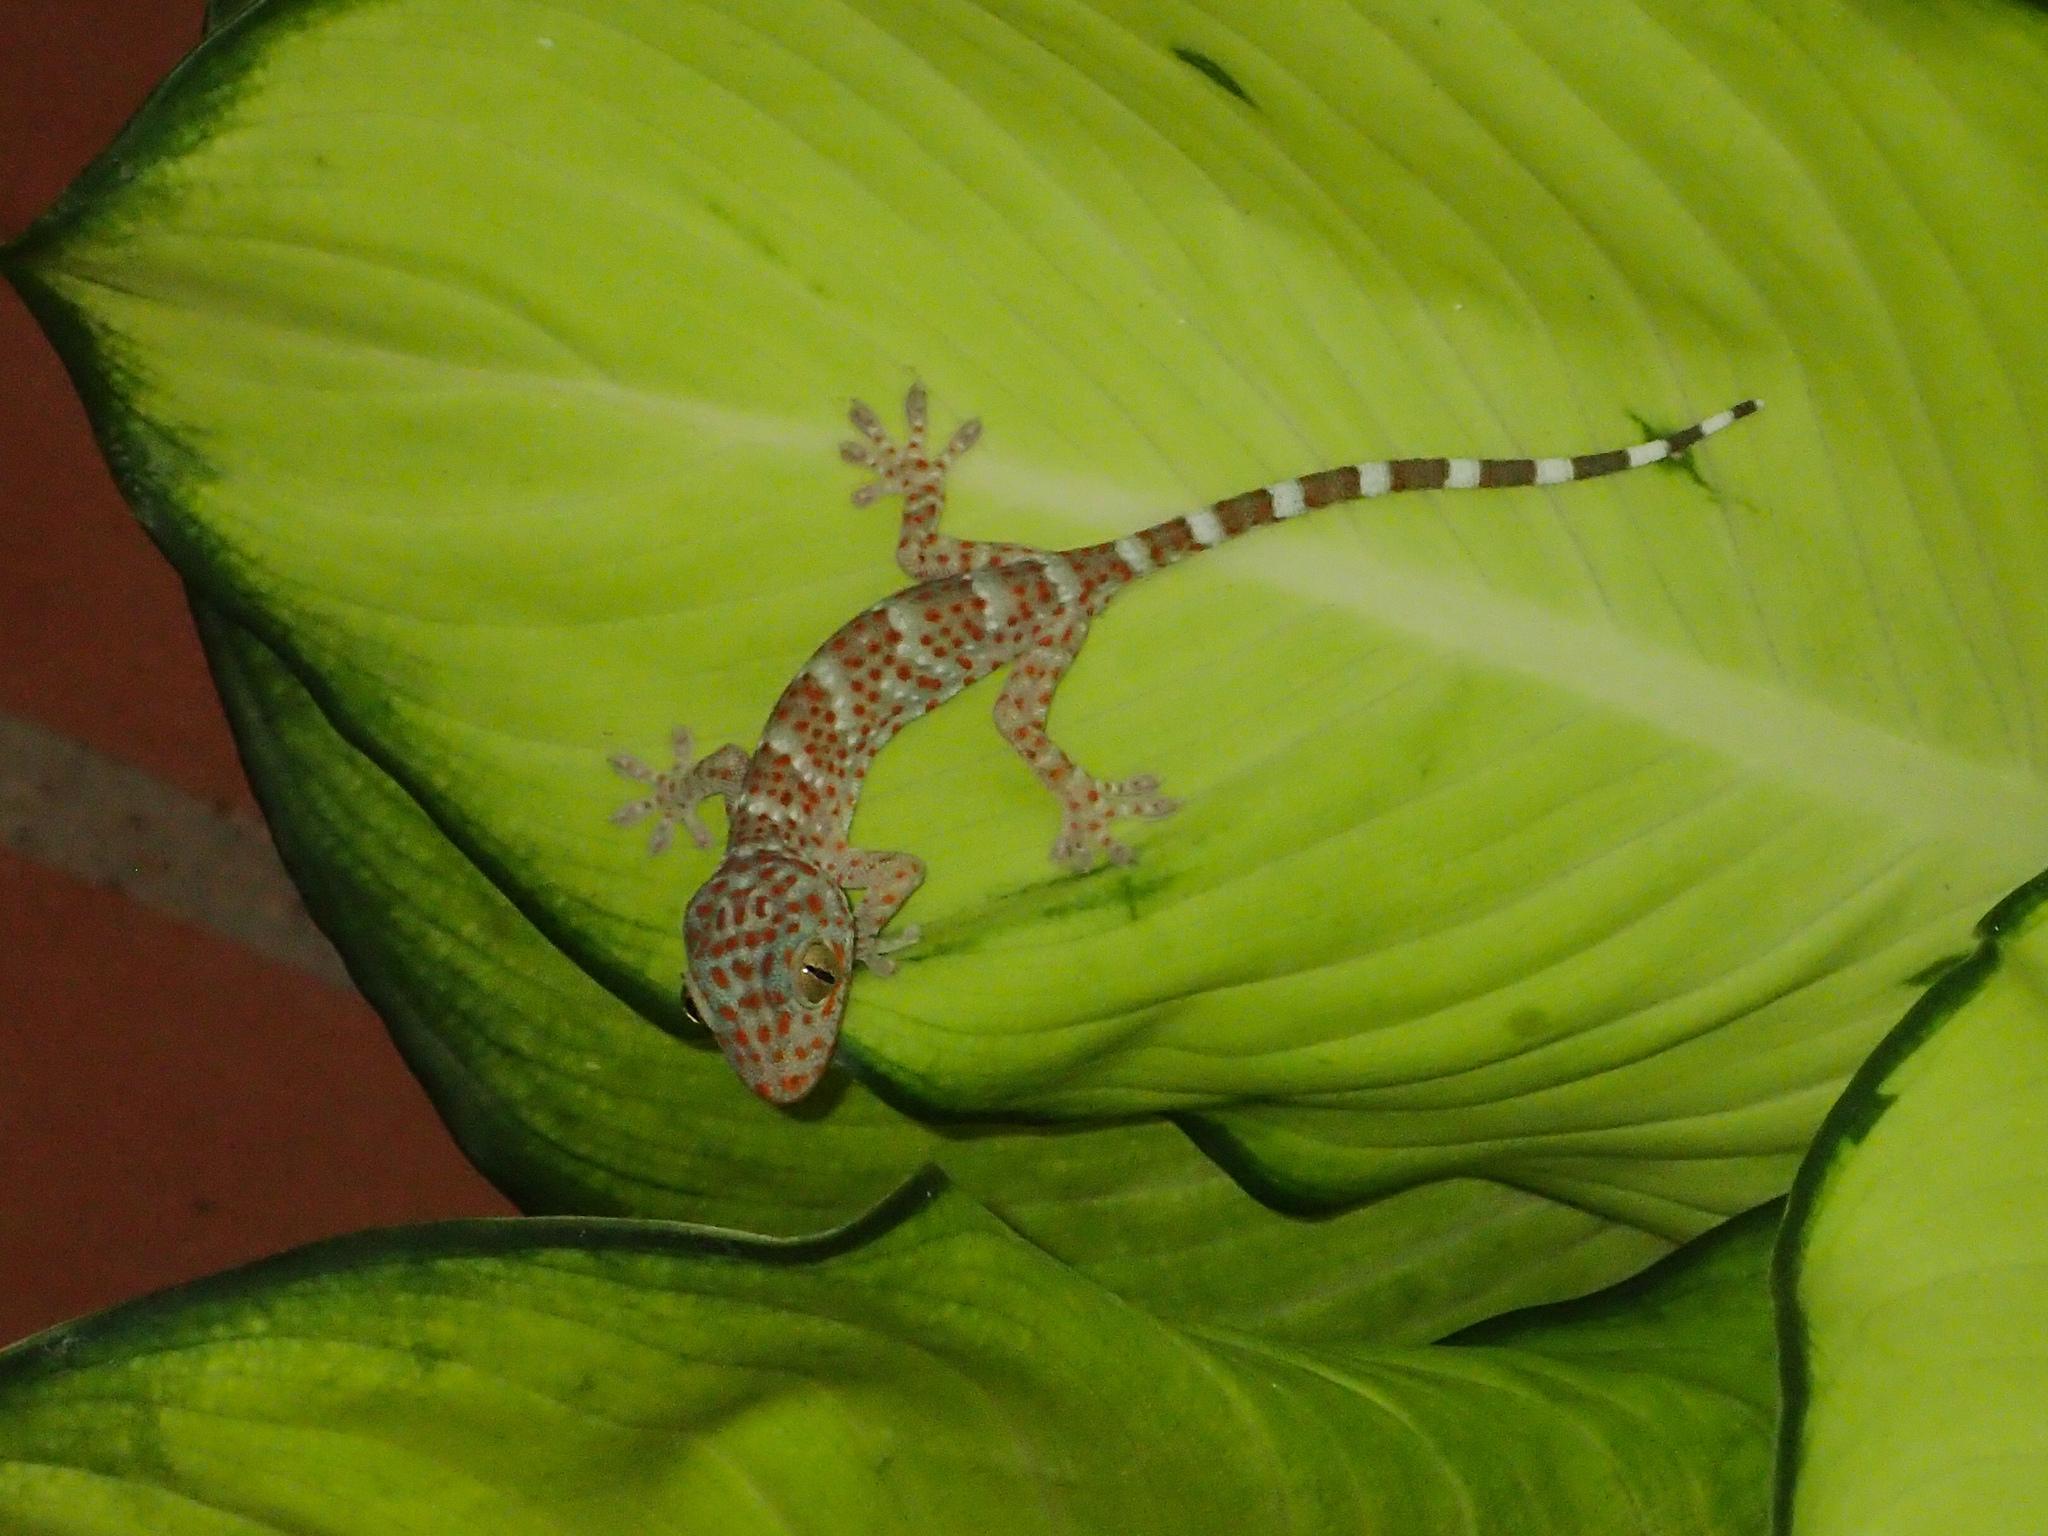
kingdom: Animalia
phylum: Chordata
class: Squamata
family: Gekkonidae
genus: Gekko
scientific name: Gekko gecko
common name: Tokay gecko
